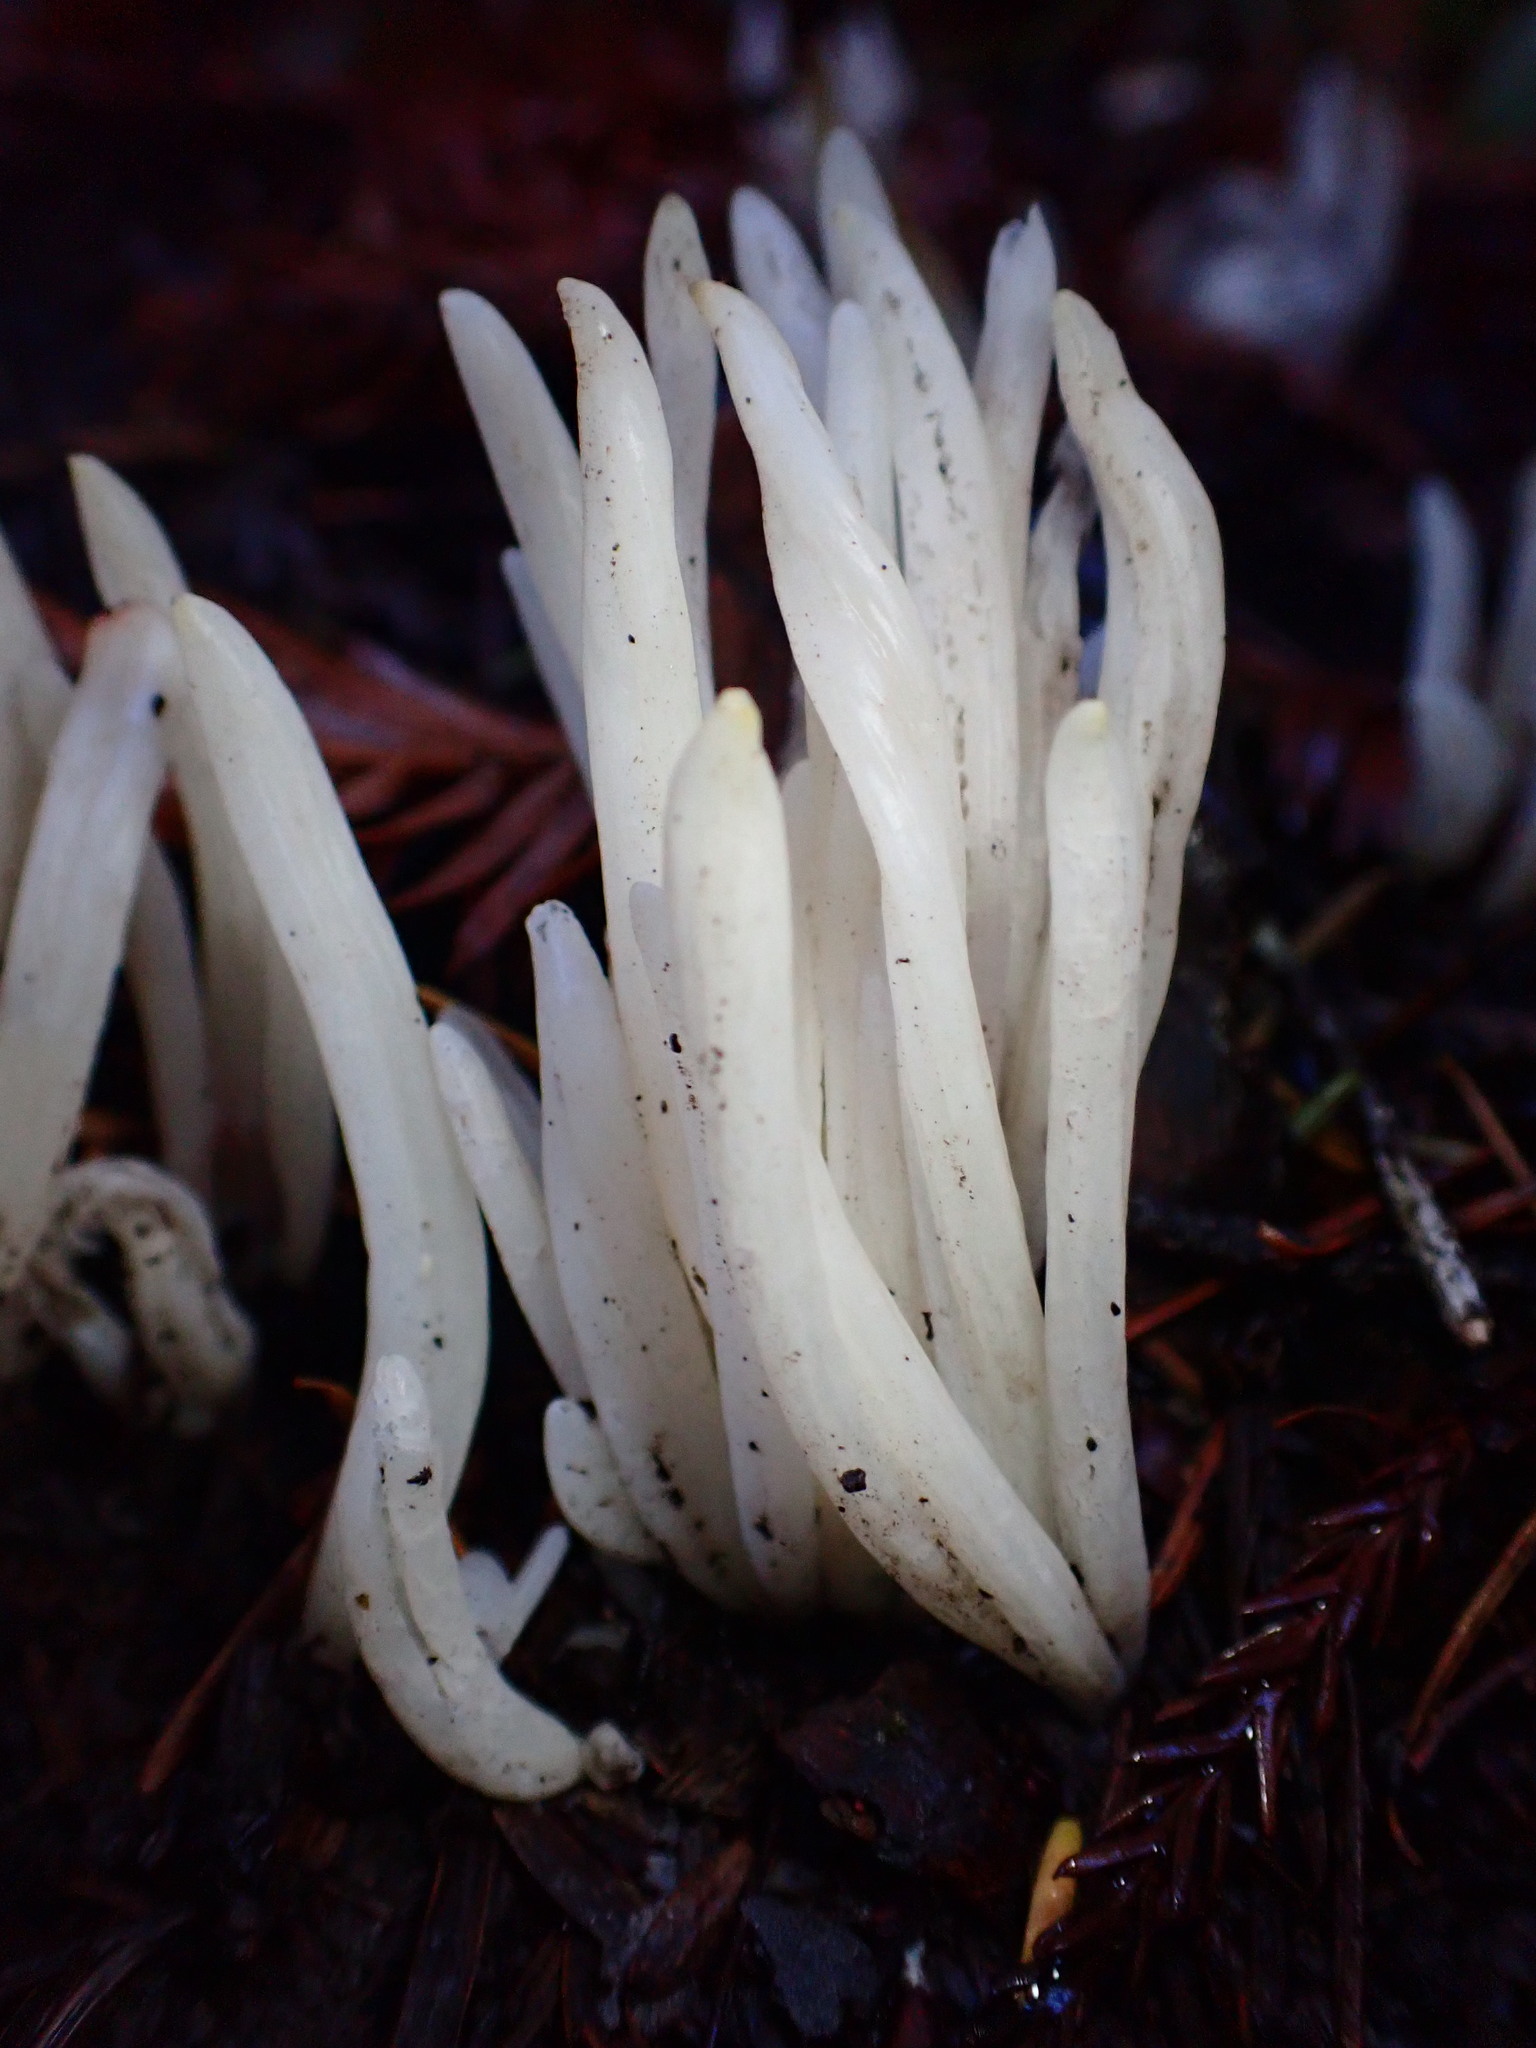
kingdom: Fungi
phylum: Basidiomycota
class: Agaricomycetes
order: Agaricales
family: Clavariaceae
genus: Clavaria
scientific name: Clavaria fragilis
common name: White spindles
